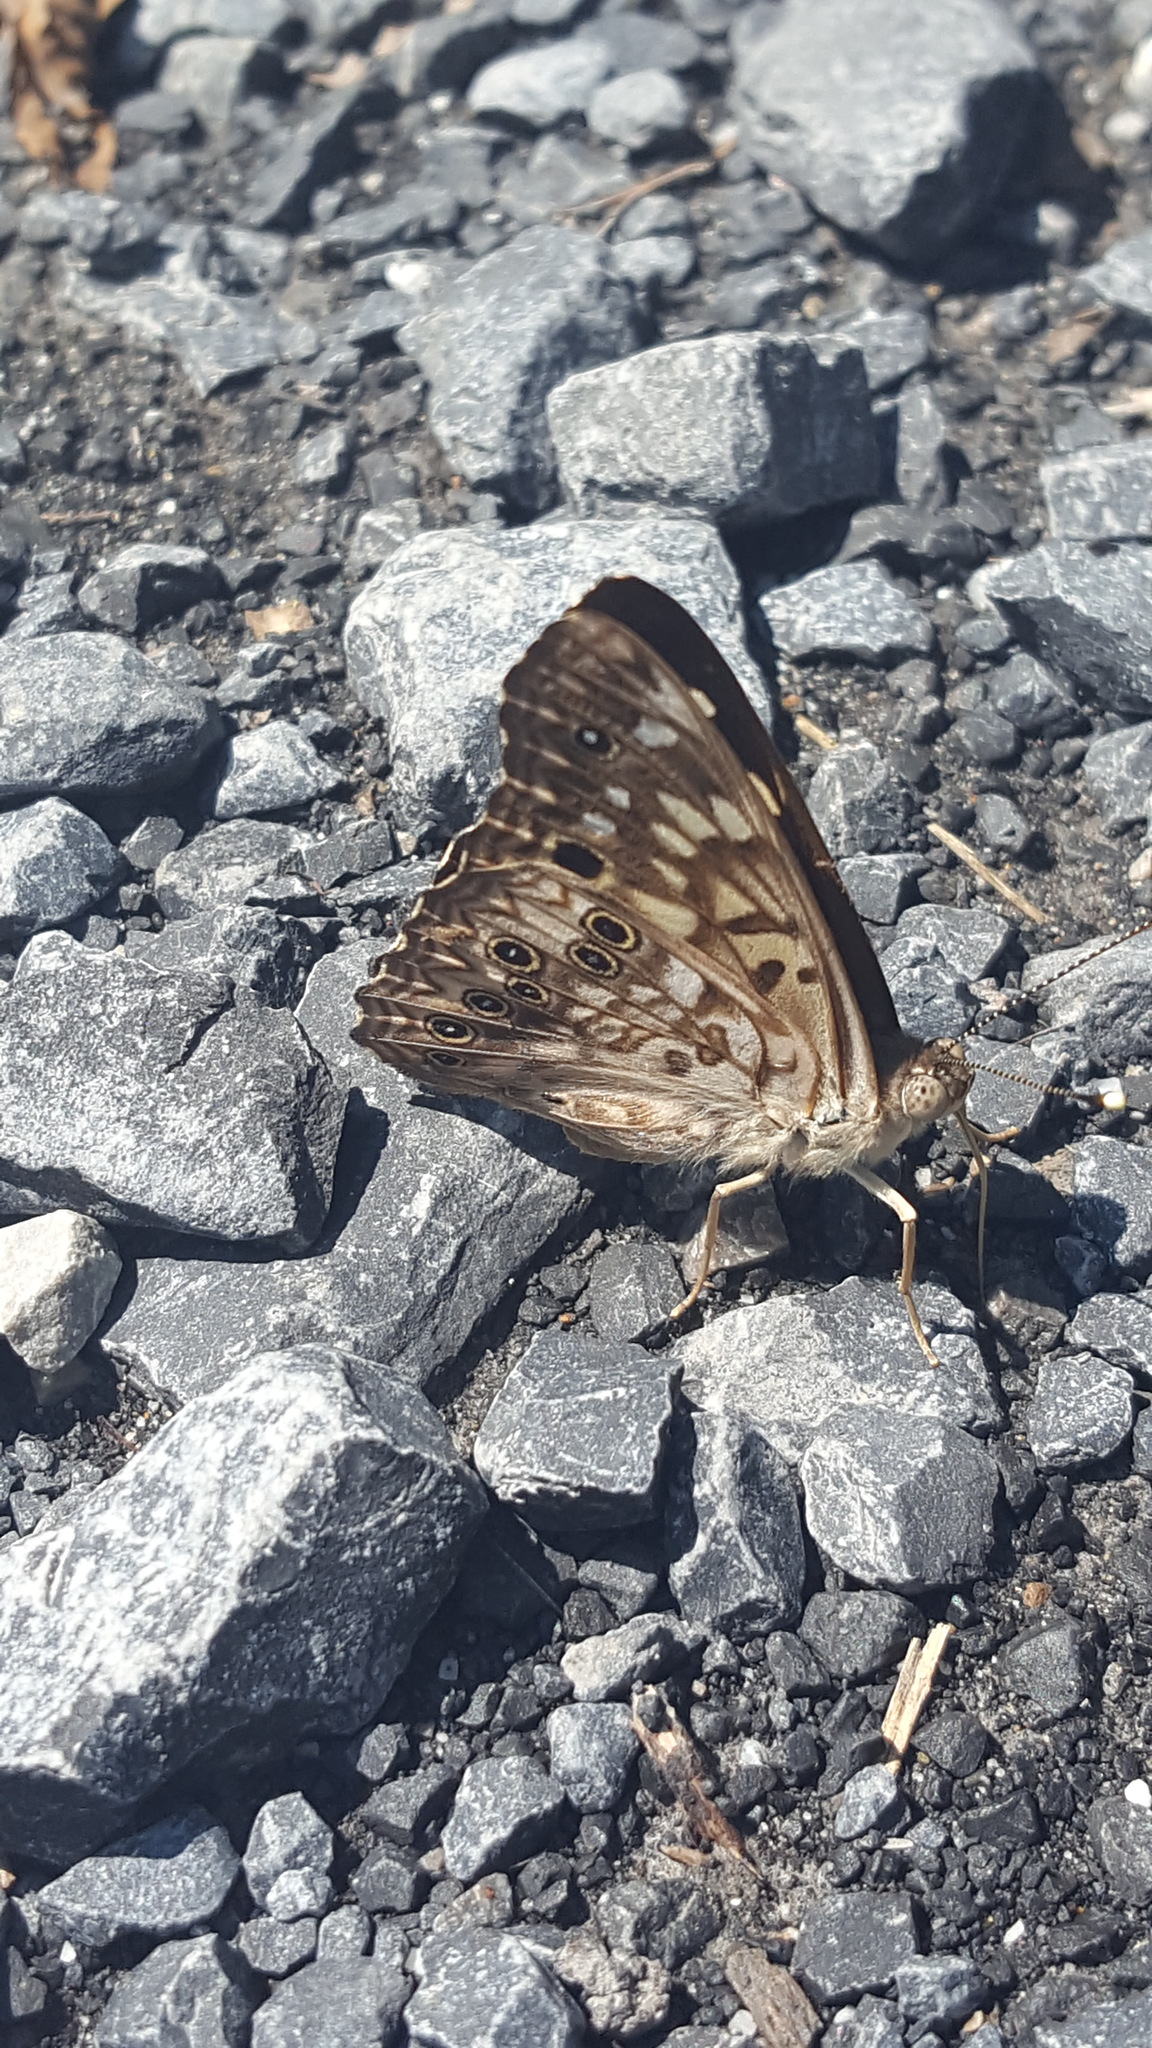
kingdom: Animalia
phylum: Arthropoda
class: Insecta
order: Lepidoptera
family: Nymphalidae
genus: Asterocampa
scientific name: Asterocampa celtis
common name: Hackberry emperor
